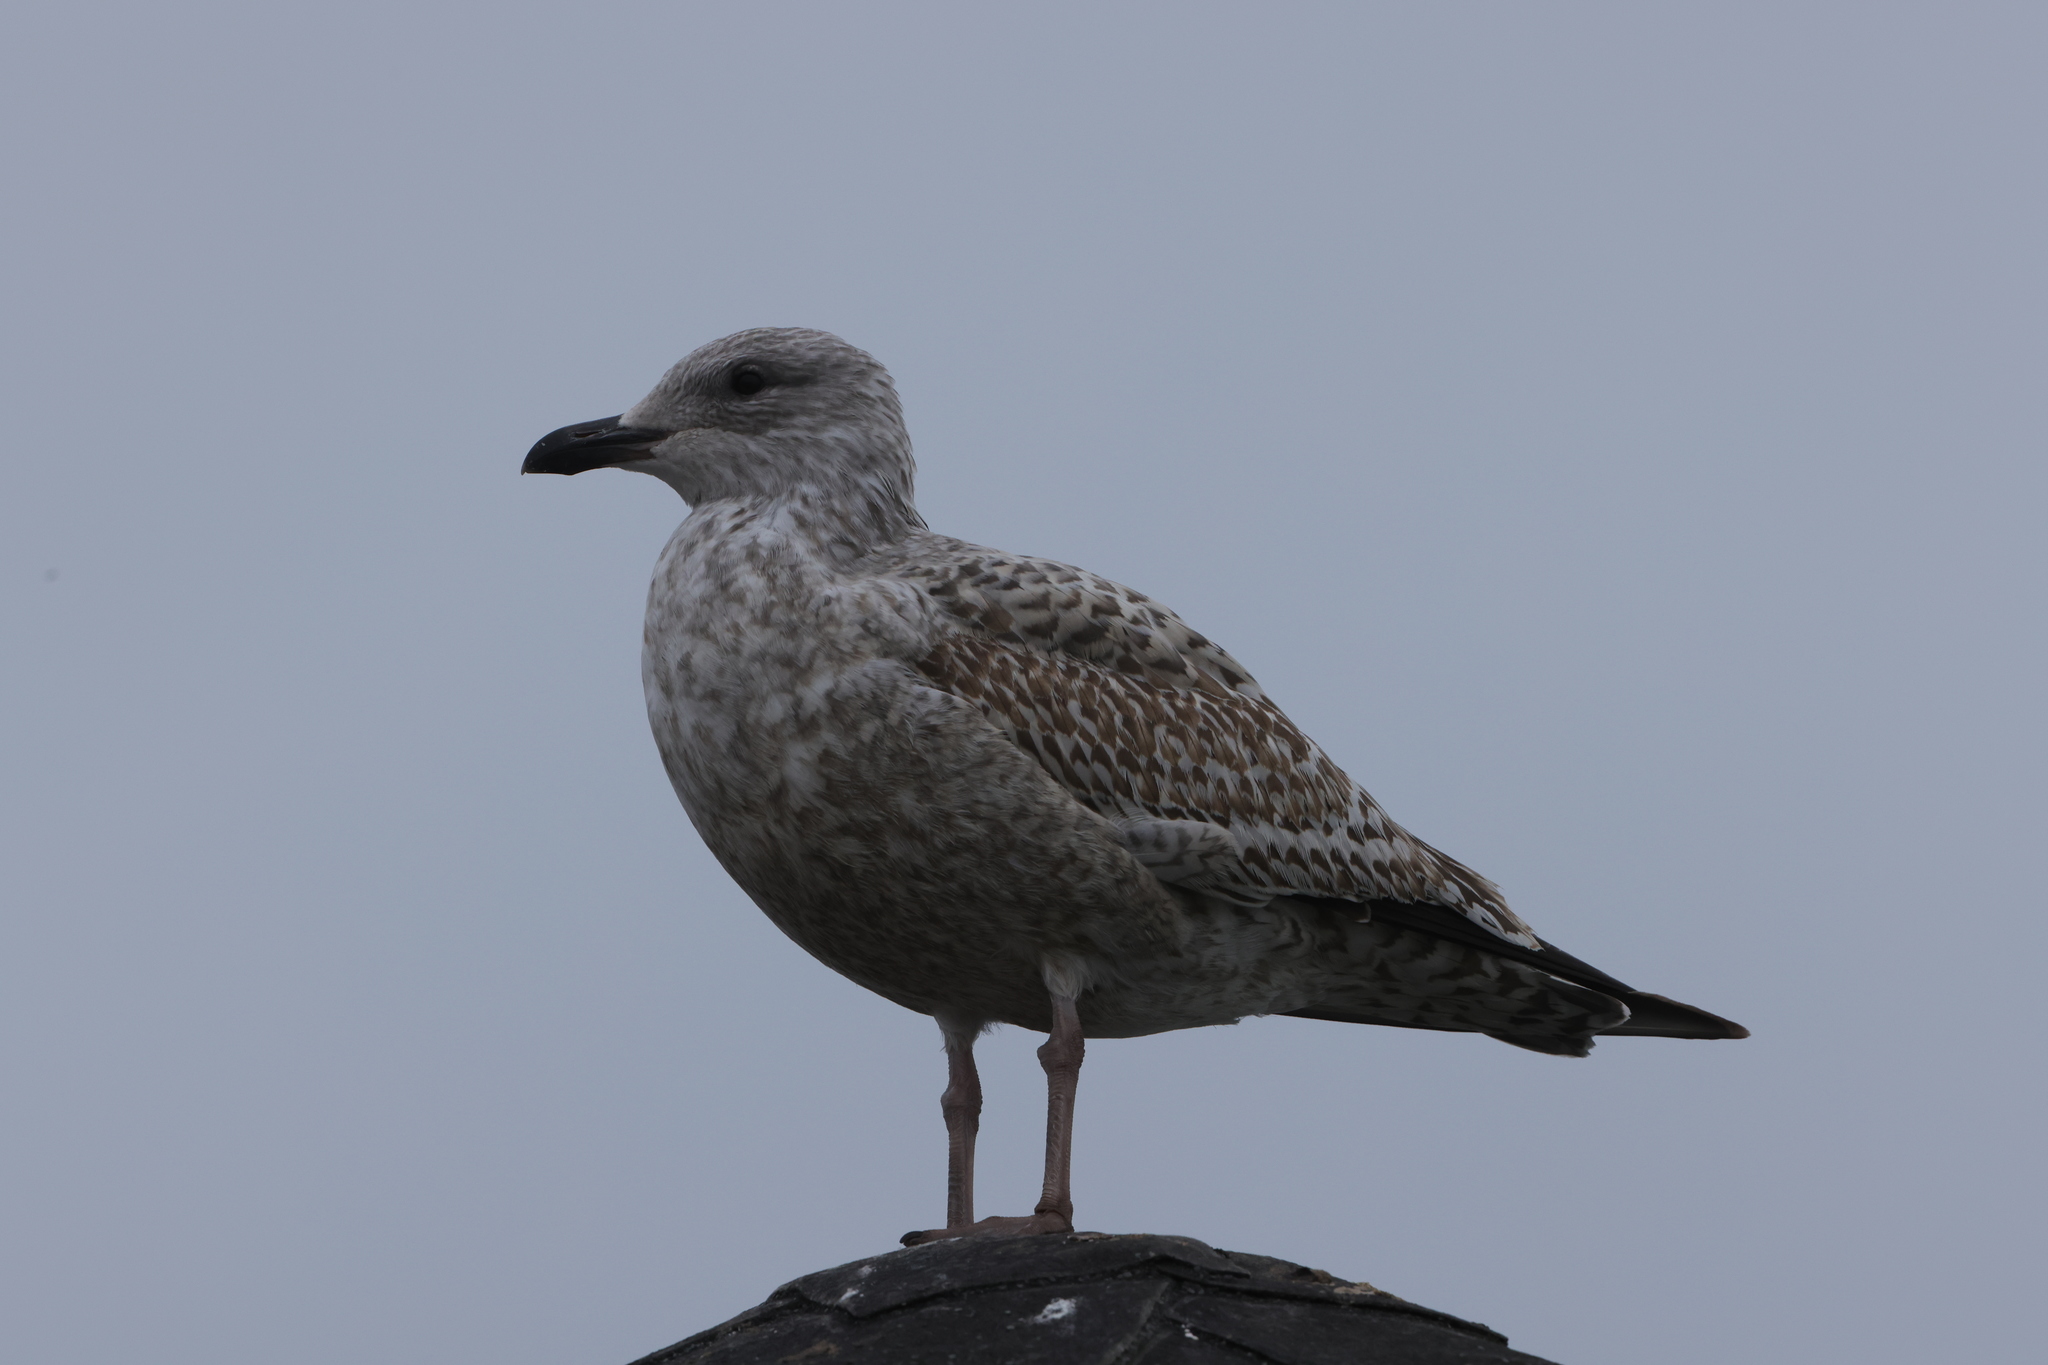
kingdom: Animalia
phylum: Chordata
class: Aves
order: Charadriiformes
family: Laridae
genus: Larus
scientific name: Larus argentatus
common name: Herring gull
